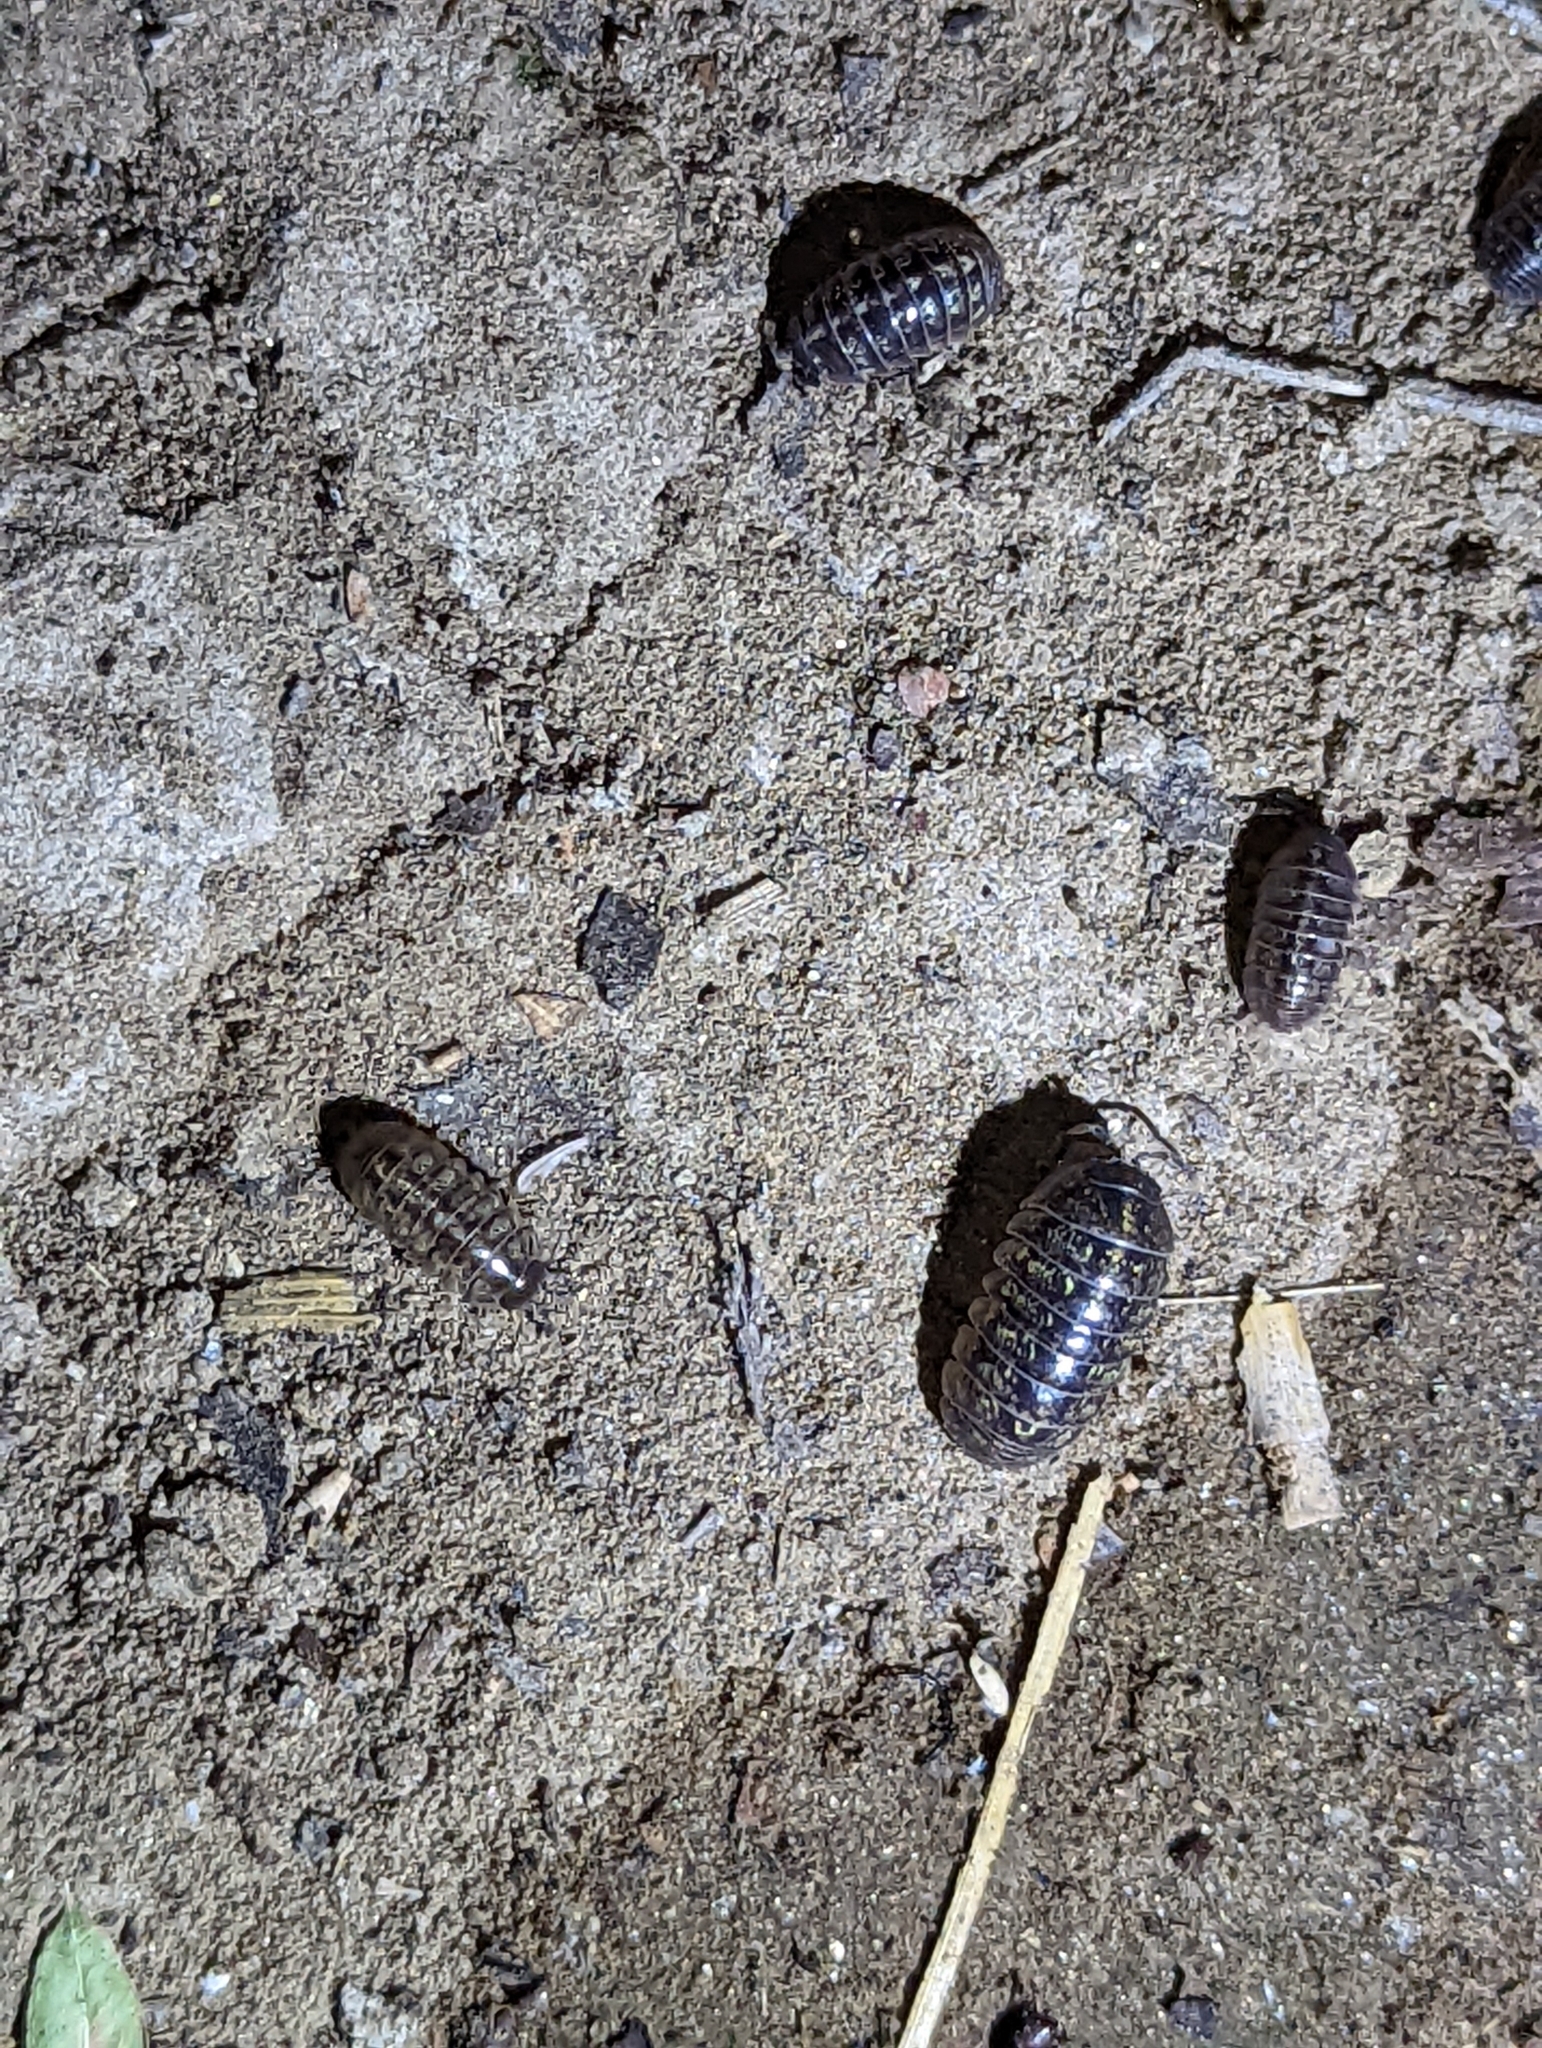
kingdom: Animalia
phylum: Arthropoda
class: Malacostraca
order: Isopoda
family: Armadillidiidae
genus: Armadillidium
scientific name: Armadillidium vulgare
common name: Common pill woodlouse
